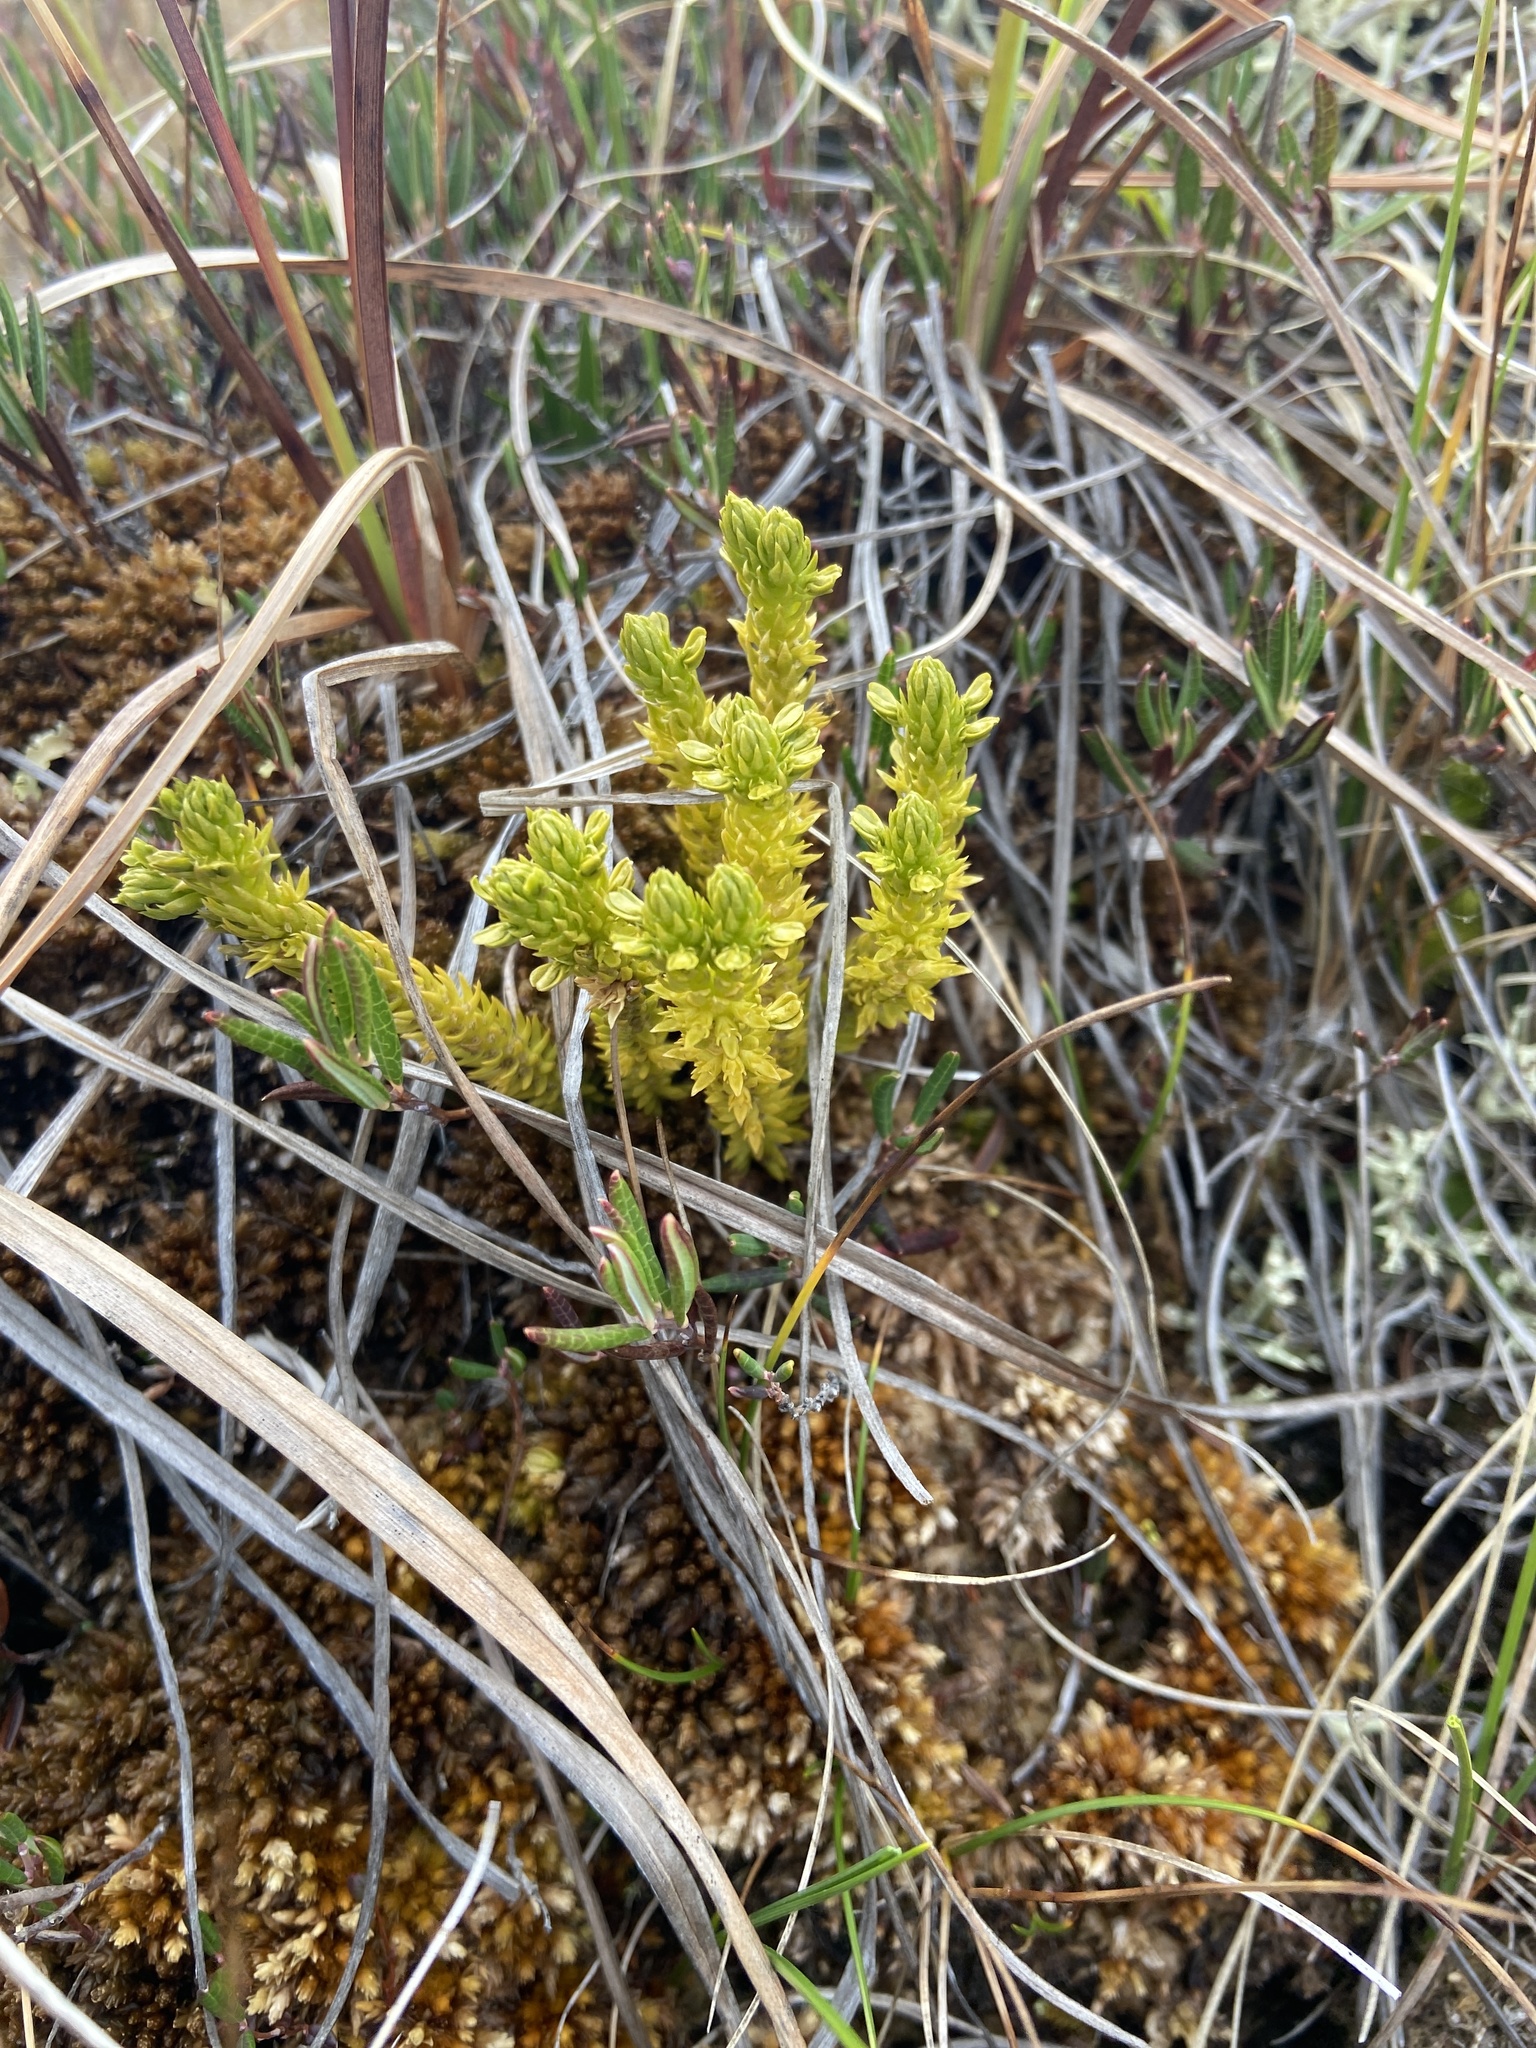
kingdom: Plantae
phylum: Tracheophyta
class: Lycopodiopsida
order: Lycopodiales
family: Lycopodiaceae
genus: Huperzia
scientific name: Huperzia selago
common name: Northern firmoss
